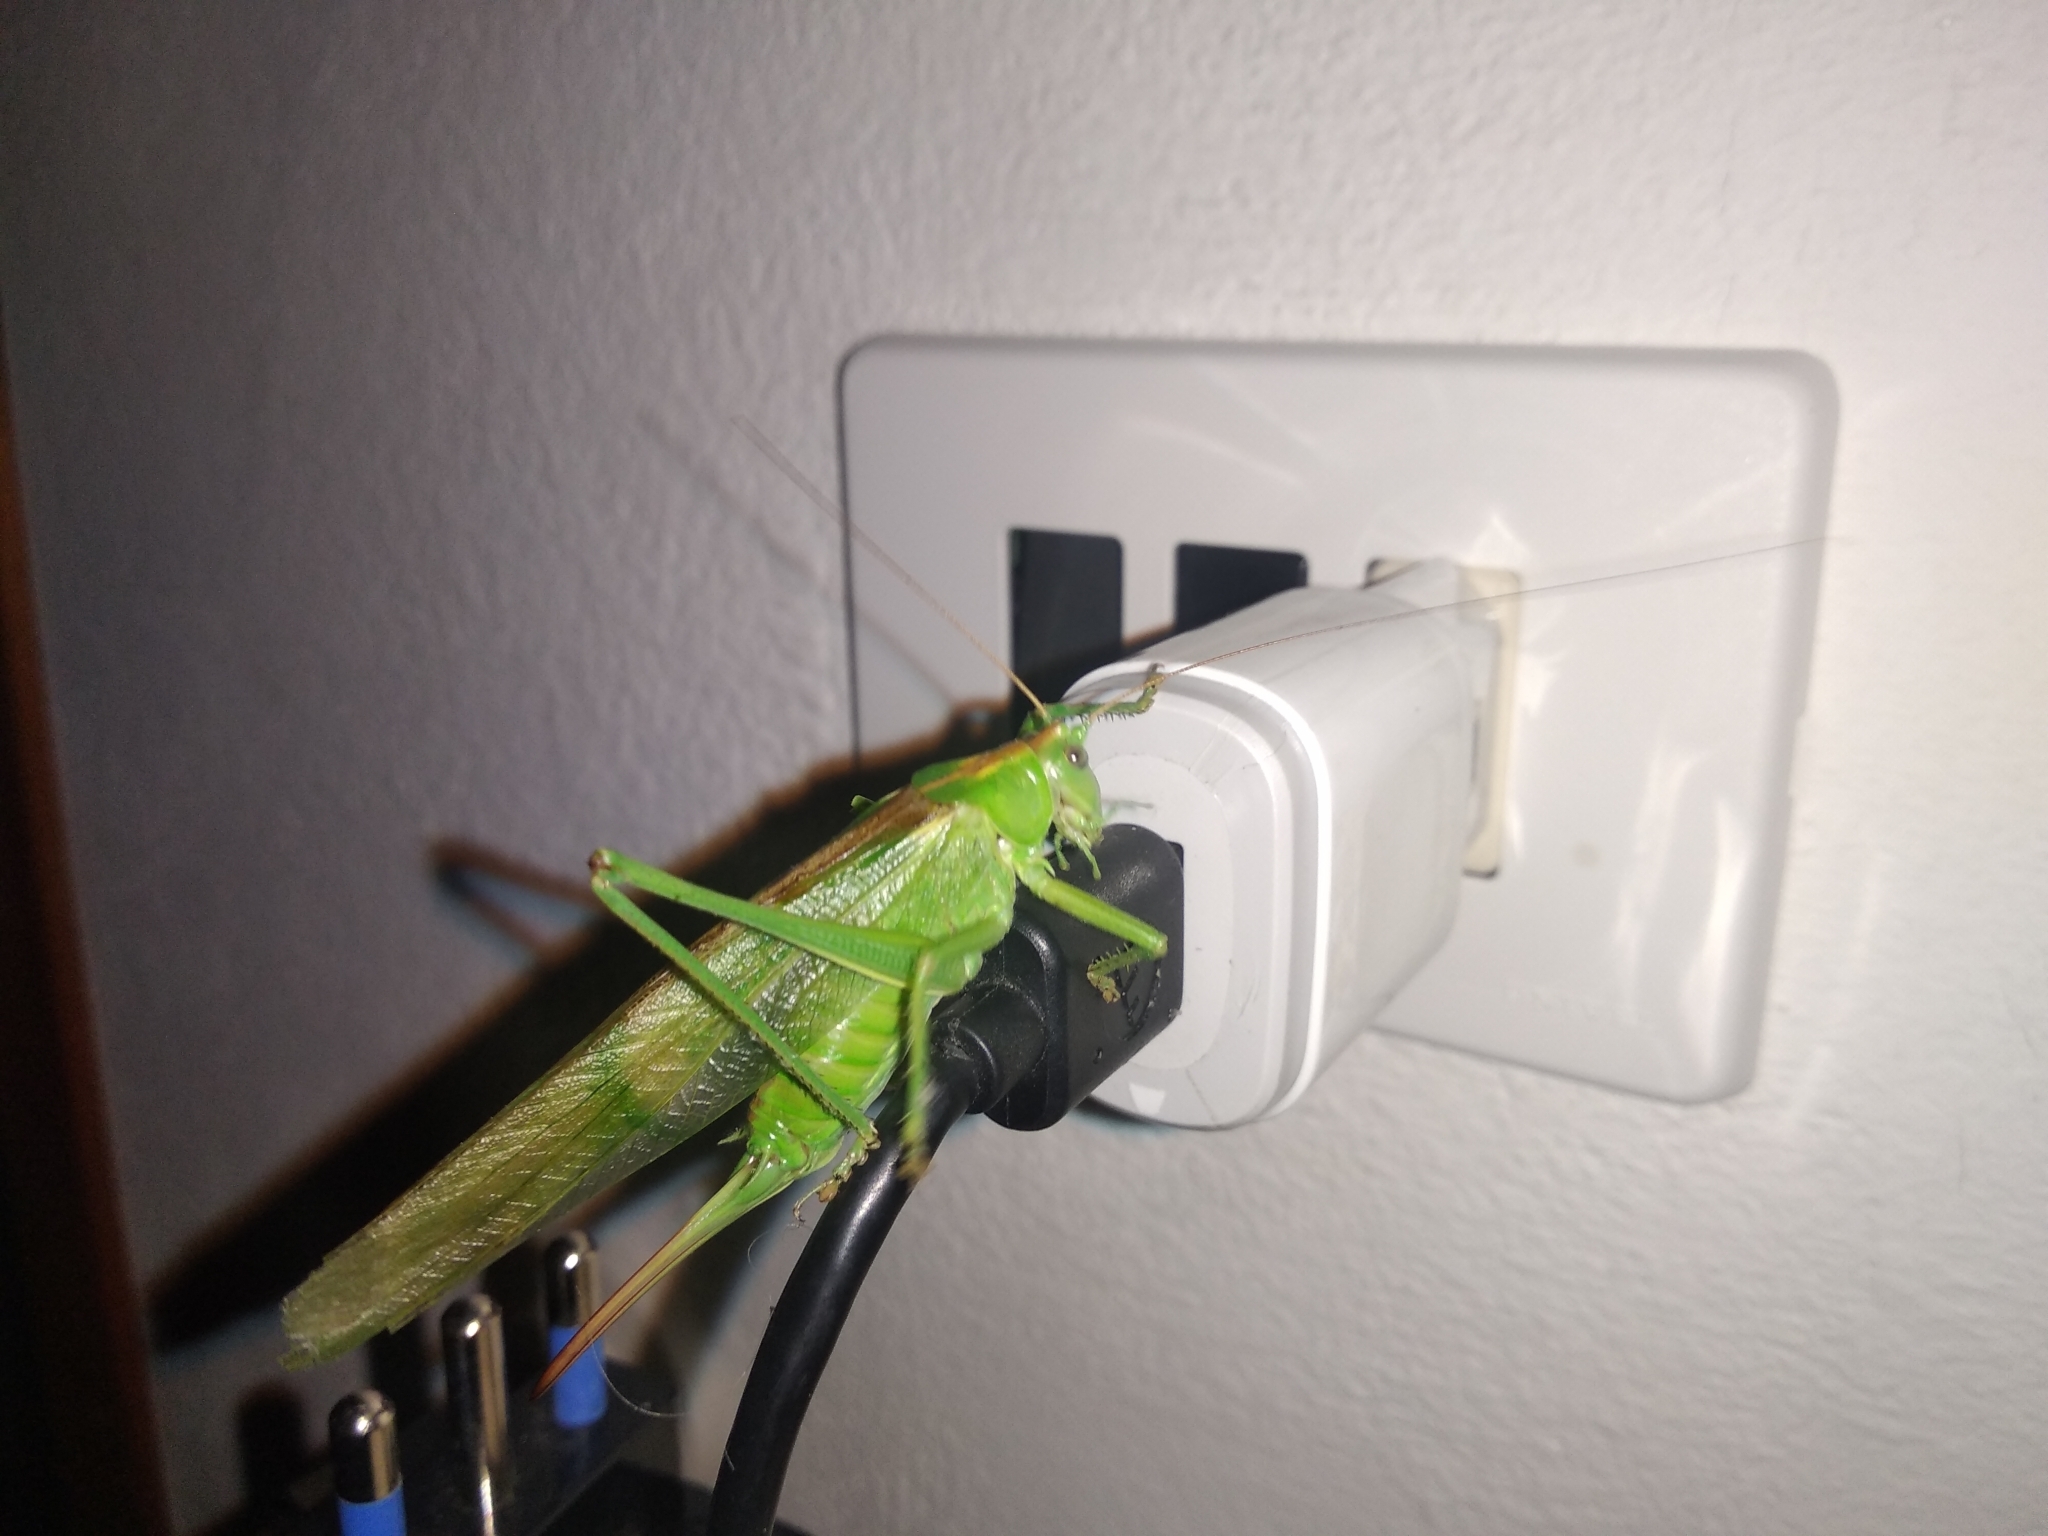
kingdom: Animalia
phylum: Arthropoda
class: Insecta
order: Orthoptera
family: Tettigoniidae
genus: Tettigonia
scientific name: Tettigonia viridissima
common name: Great green bush-cricket
